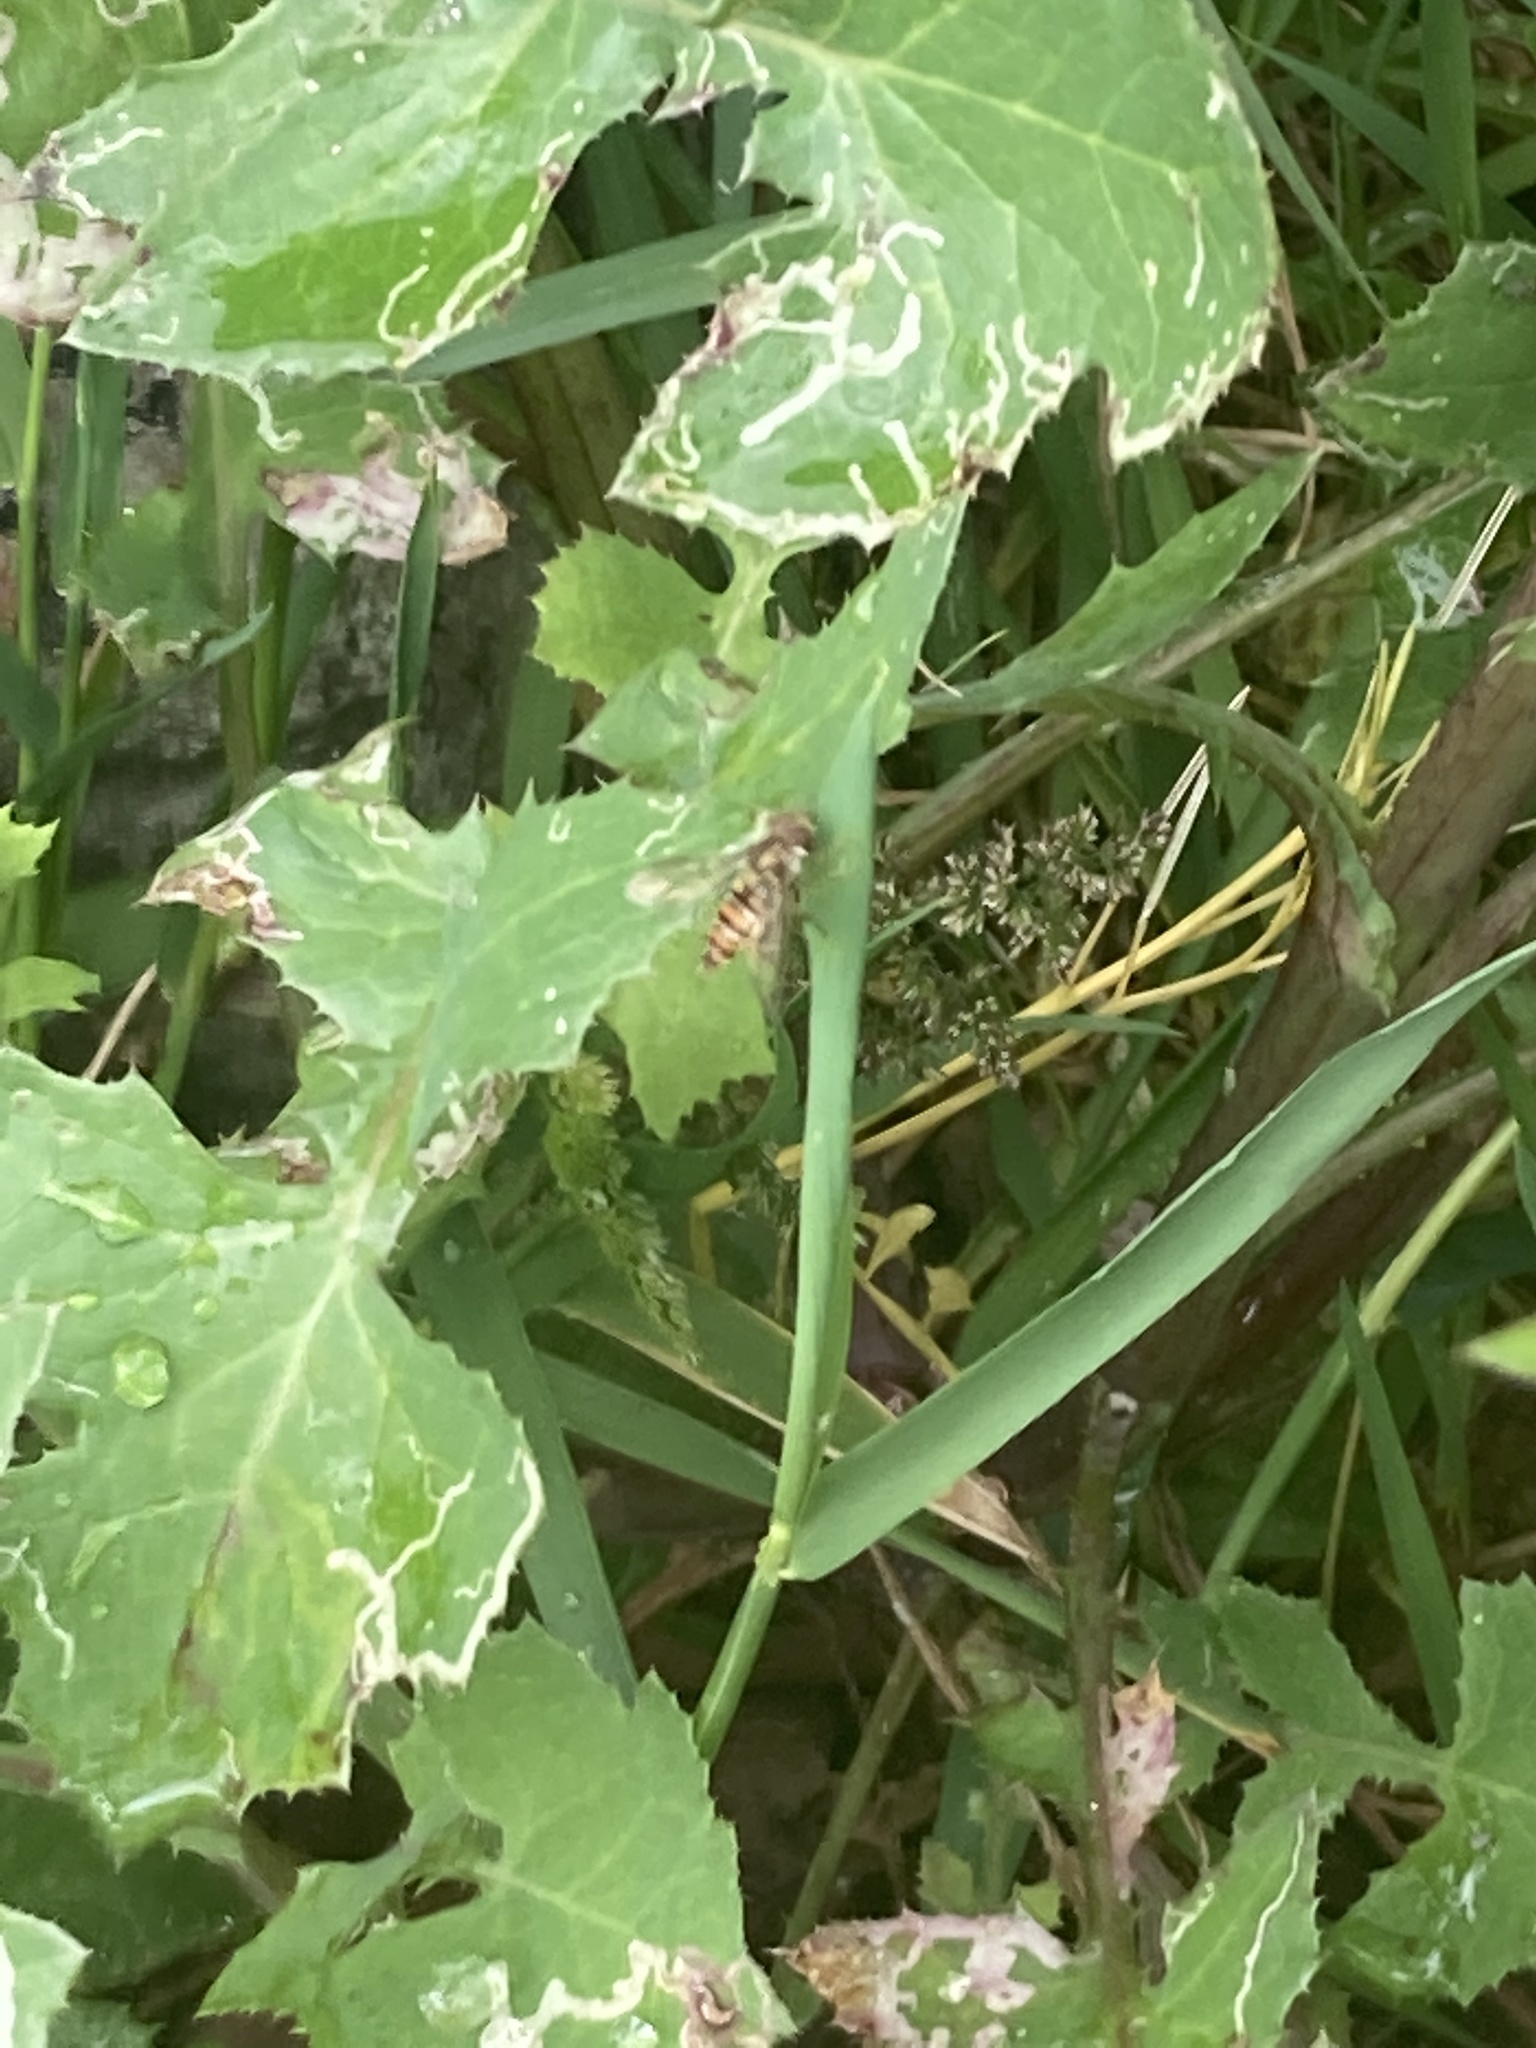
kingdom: Animalia
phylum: Arthropoda
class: Insecta
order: Diptera
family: Syrphidae
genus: Episyrphus
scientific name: Episyrphus balteatus
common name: Marmalade hoverfly
